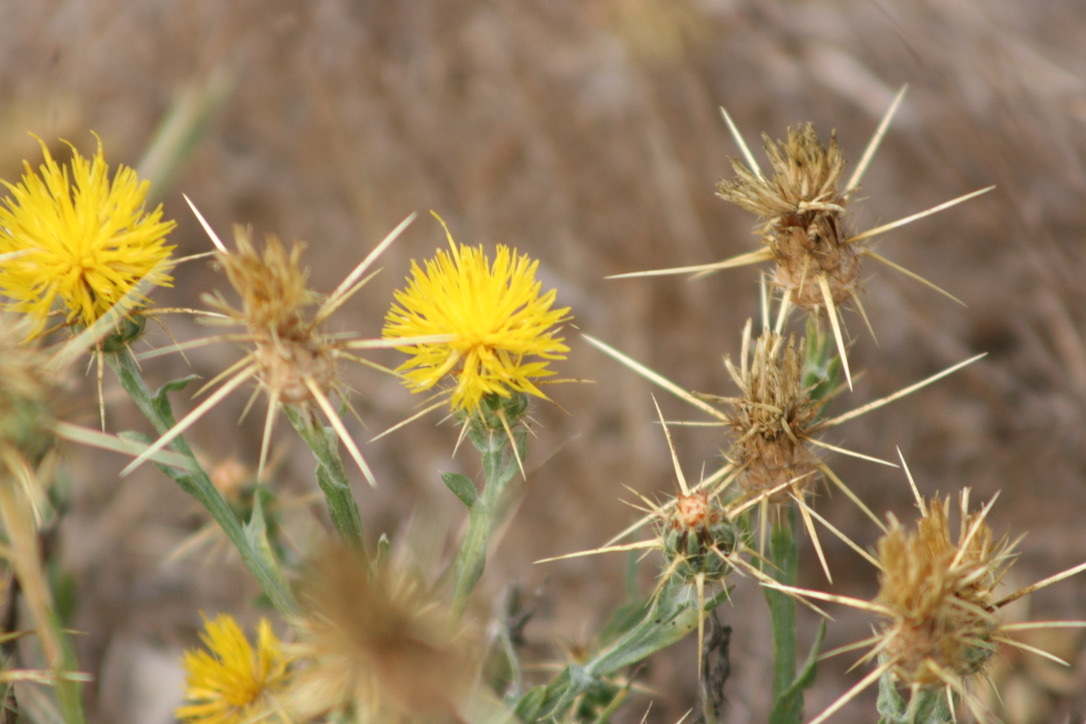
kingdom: Plantae
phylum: Tracheophyta
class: Magnoliopsida
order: Asterales
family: Asteraceae
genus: Centaurea
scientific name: Centaurea solstitialis
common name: Yellow star-thistle
